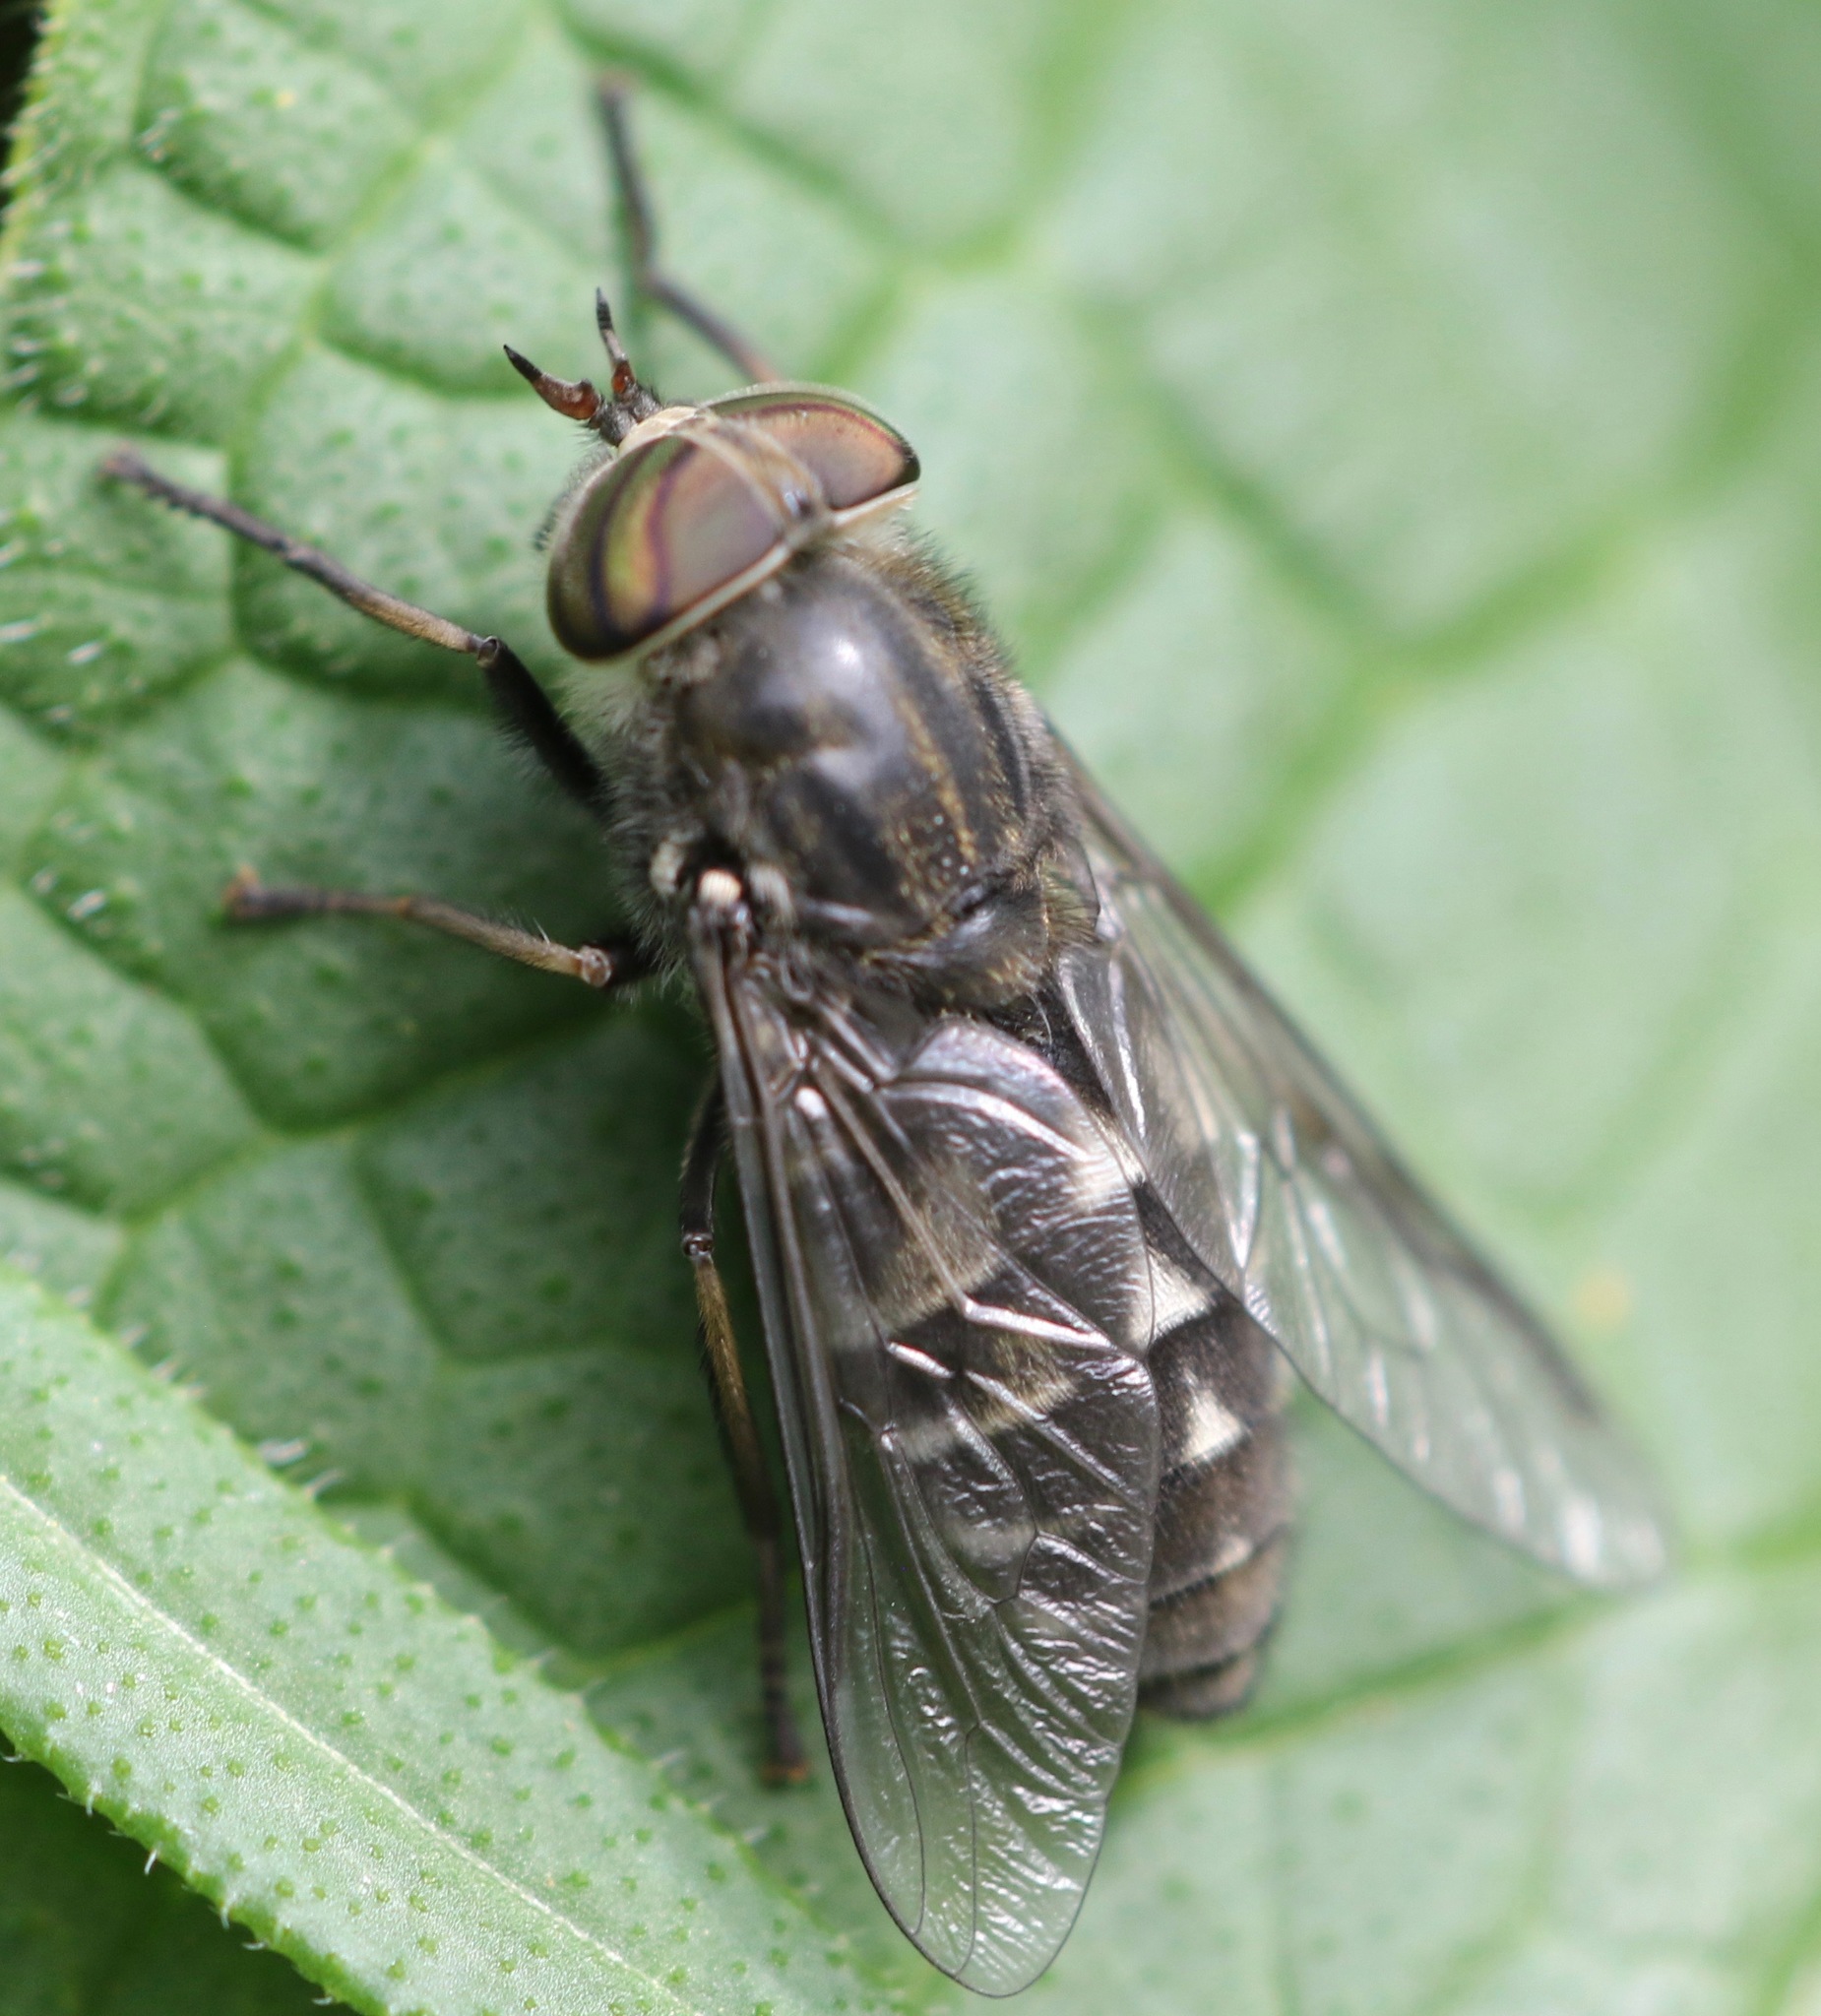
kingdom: Animalia
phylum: Arthropoda
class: Insecta
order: Diptera
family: Tabanidae
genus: Hybomitra
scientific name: Hybomitra bimaculata
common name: Hairy-legged horsefly
